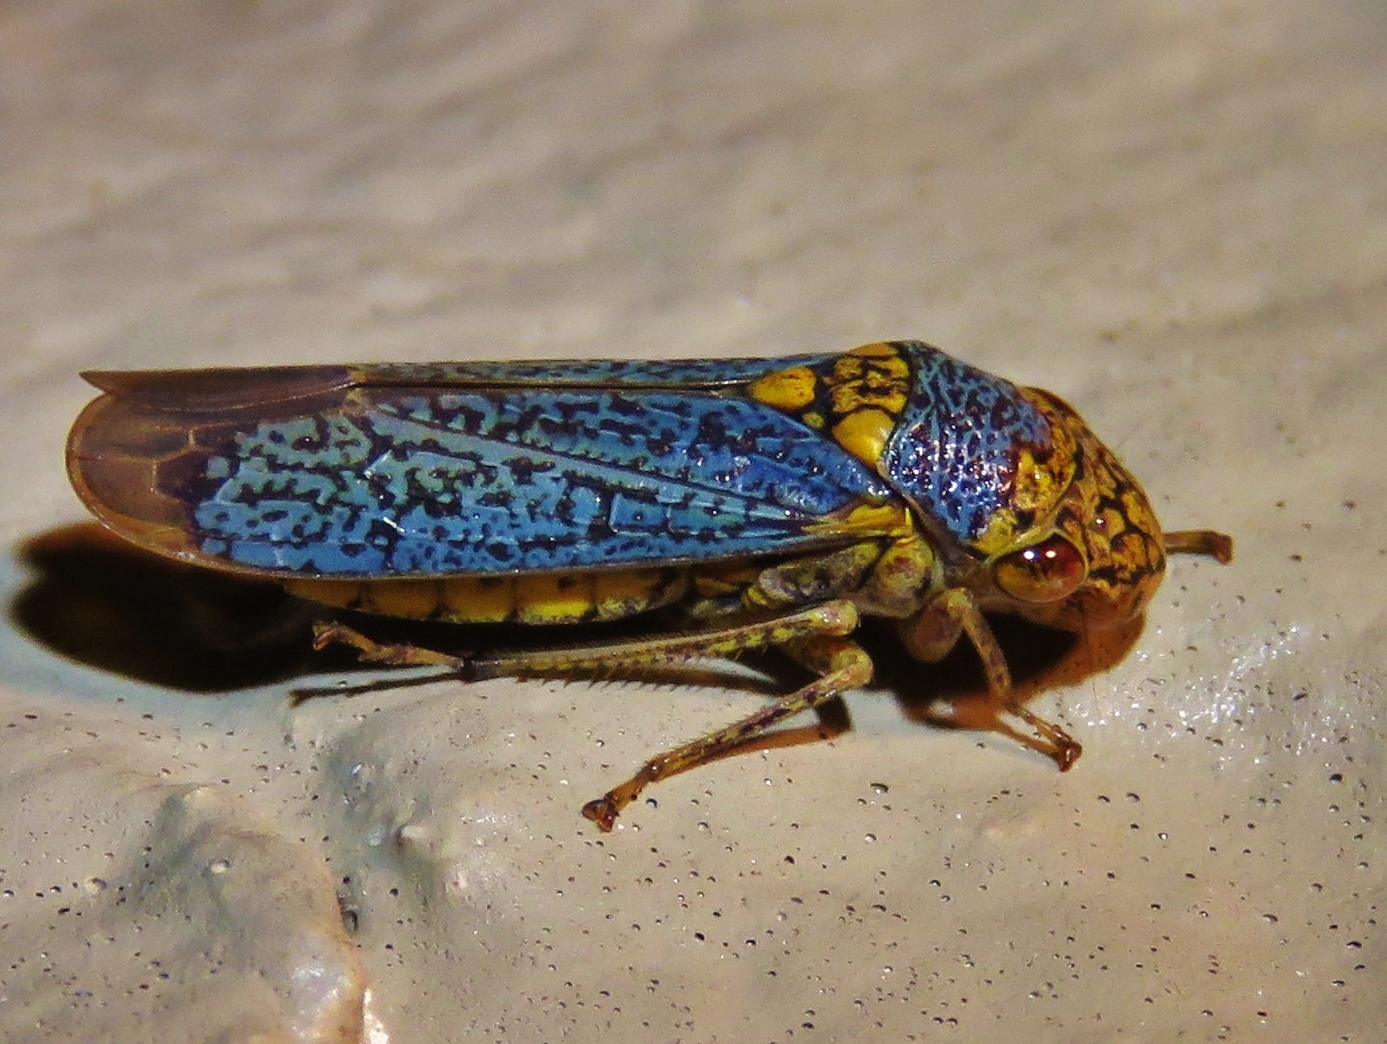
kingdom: Animalia
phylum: Arthropoda
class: Insecta
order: Hemiptera
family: Cicadellidae
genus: Oncometopia
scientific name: Oncometopia orbona
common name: Broad-headed sharpshooter
